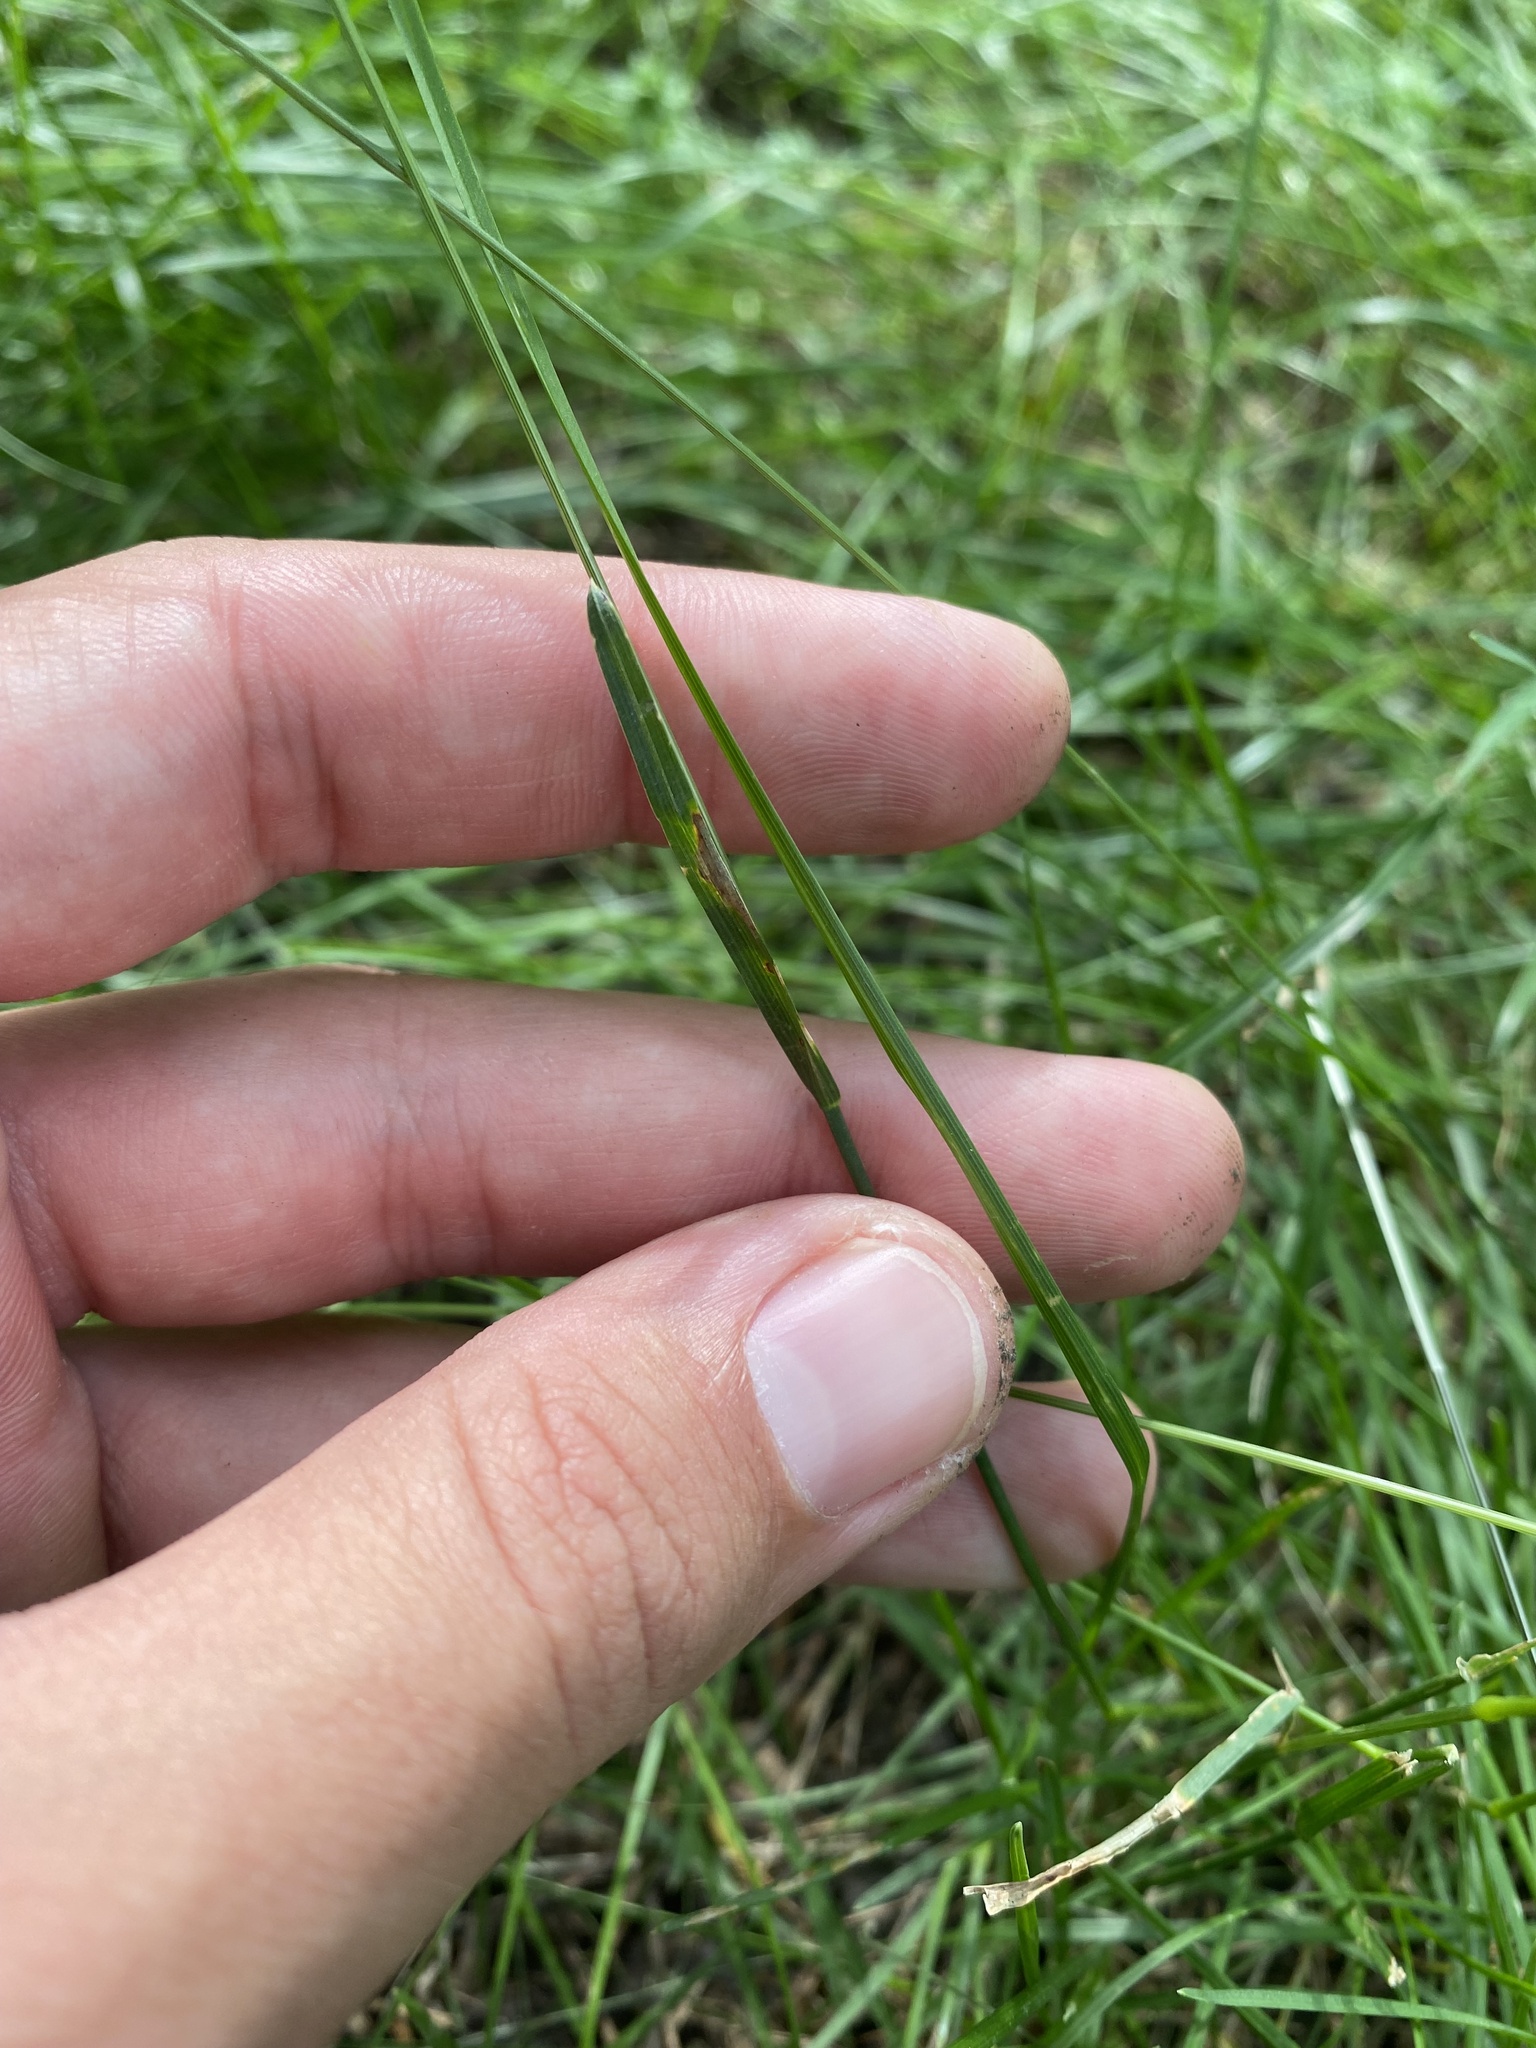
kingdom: Plantae
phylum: Tracheophyta
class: Liliopsida
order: Poales
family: Poaceae
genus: Poa
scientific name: Poa annua
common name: Annual bluegrass
